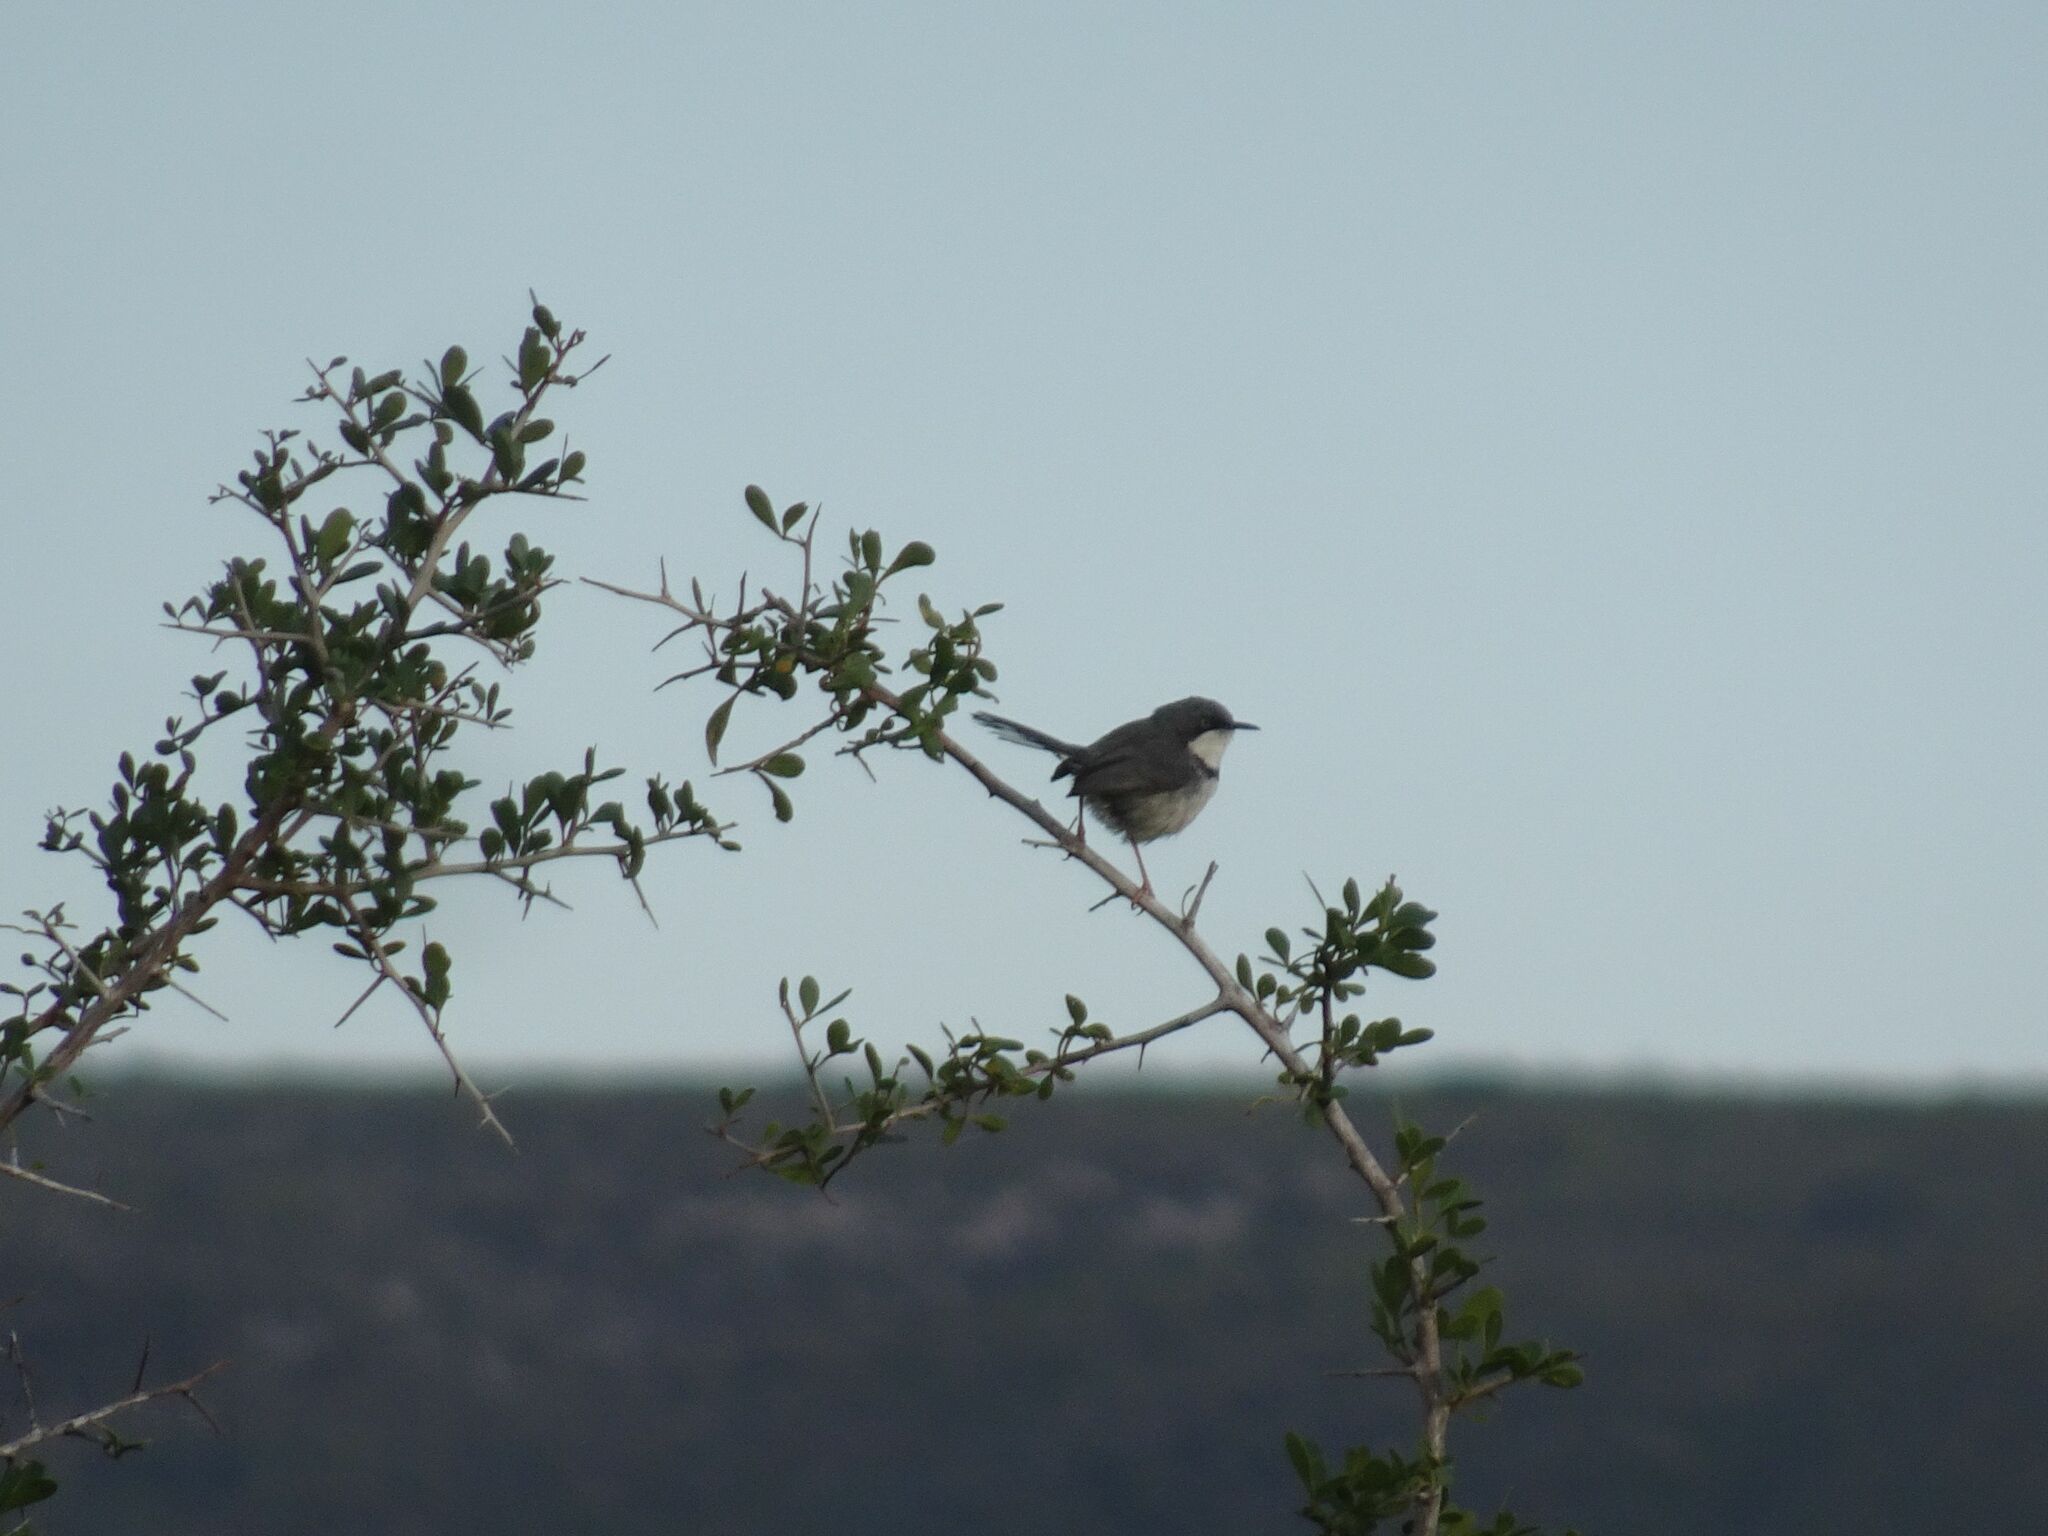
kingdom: Animalia
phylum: Chordata
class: Aves
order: Passeriformes
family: Cisticolidae
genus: Apalis
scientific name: Apalis thoracica
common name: Bar-throated apalis
